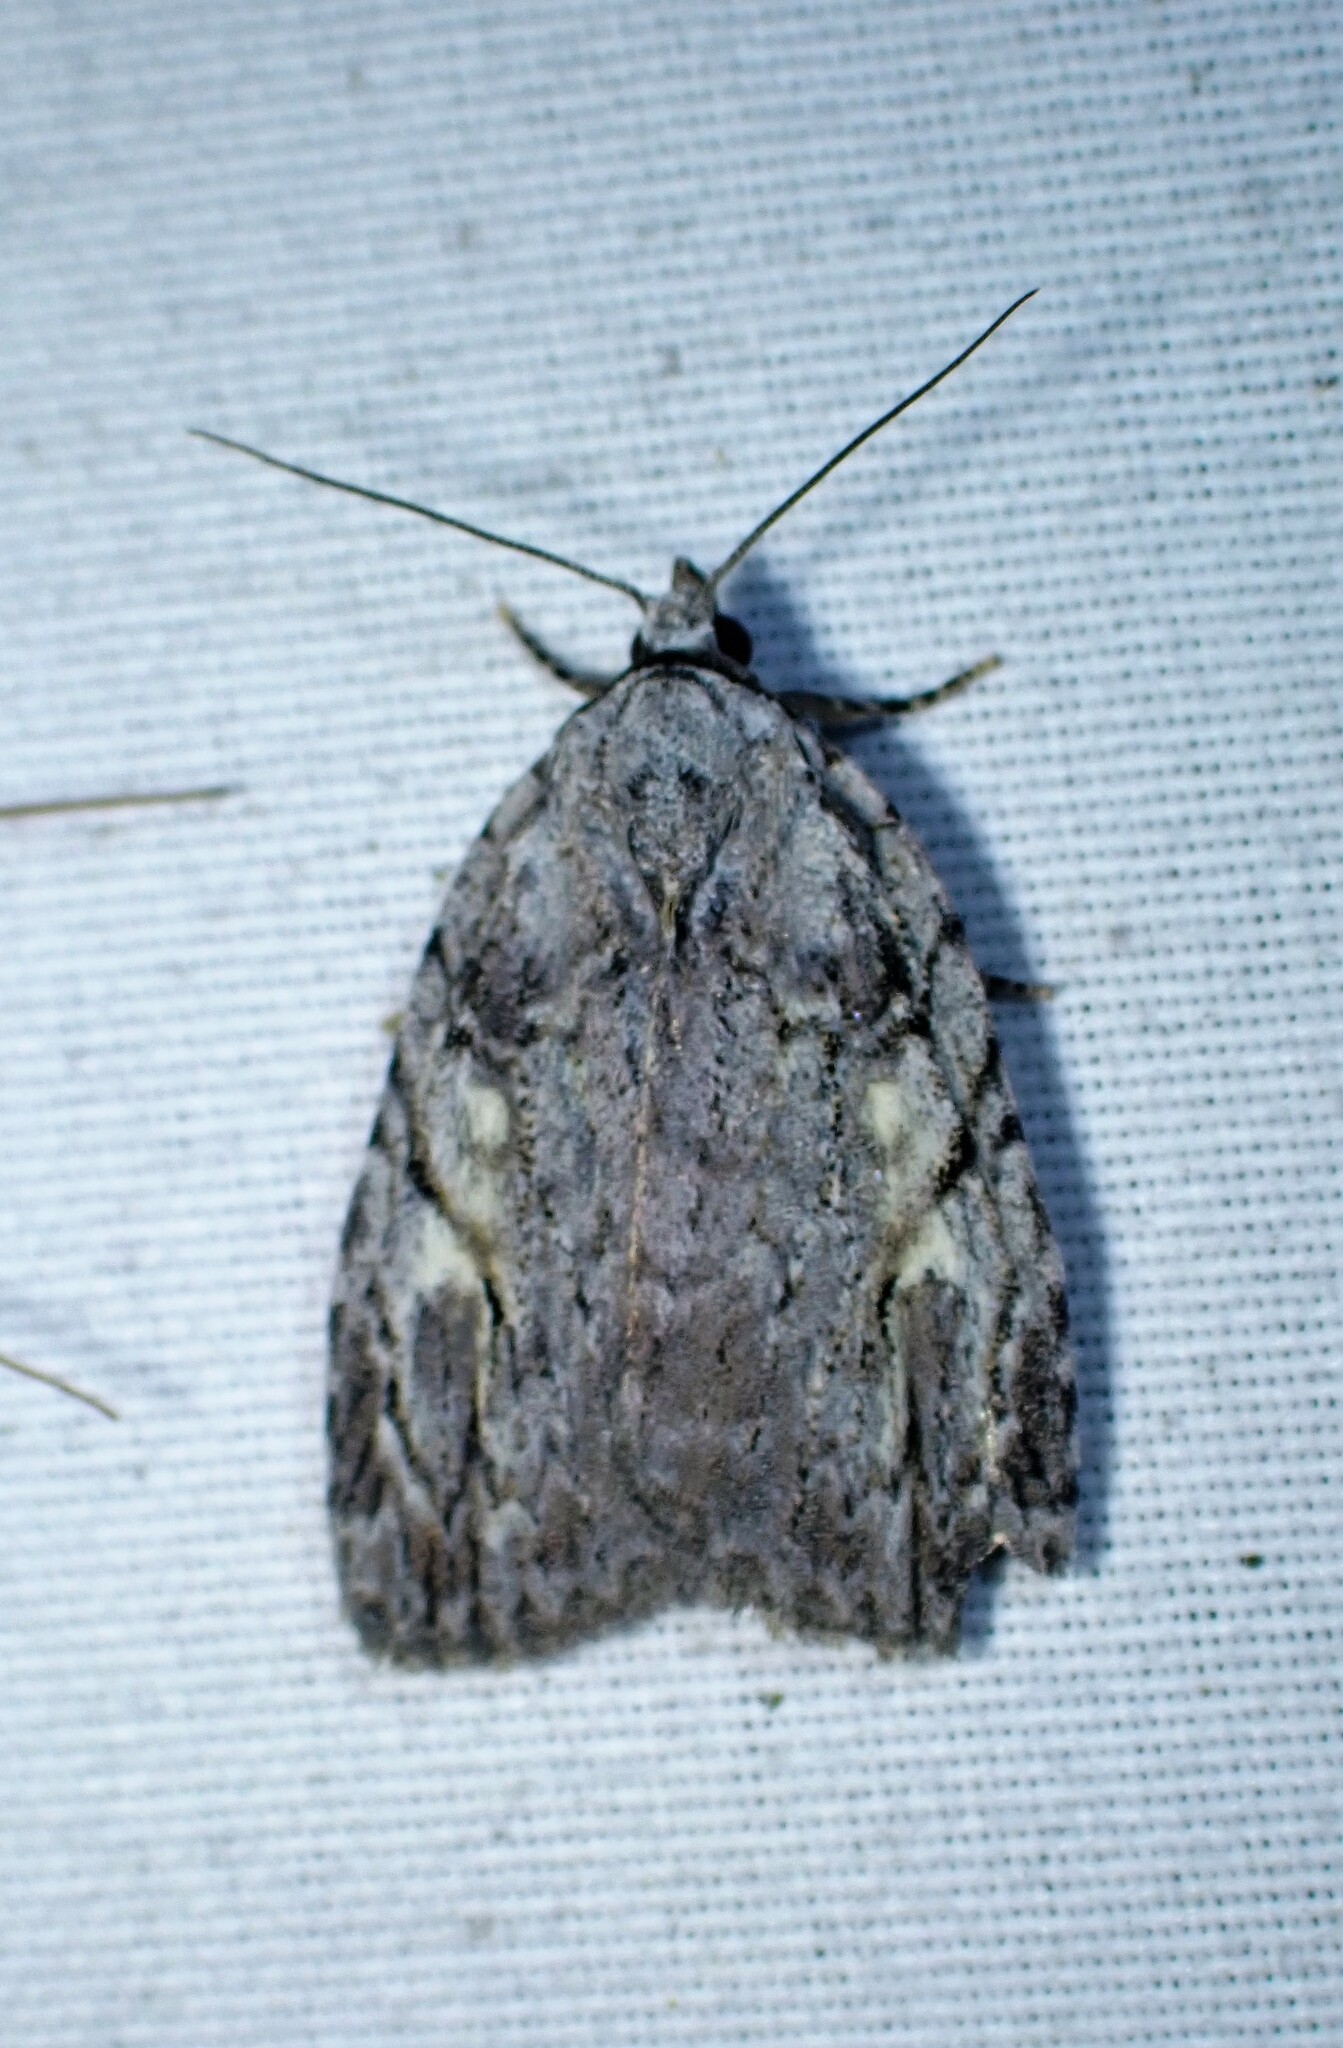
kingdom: Animalia
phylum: Arthropoda
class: Insecta
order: Lepidoptera
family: Noctuidae
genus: Balsa
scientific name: Balsa labecula
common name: White-blotched balsa moth
